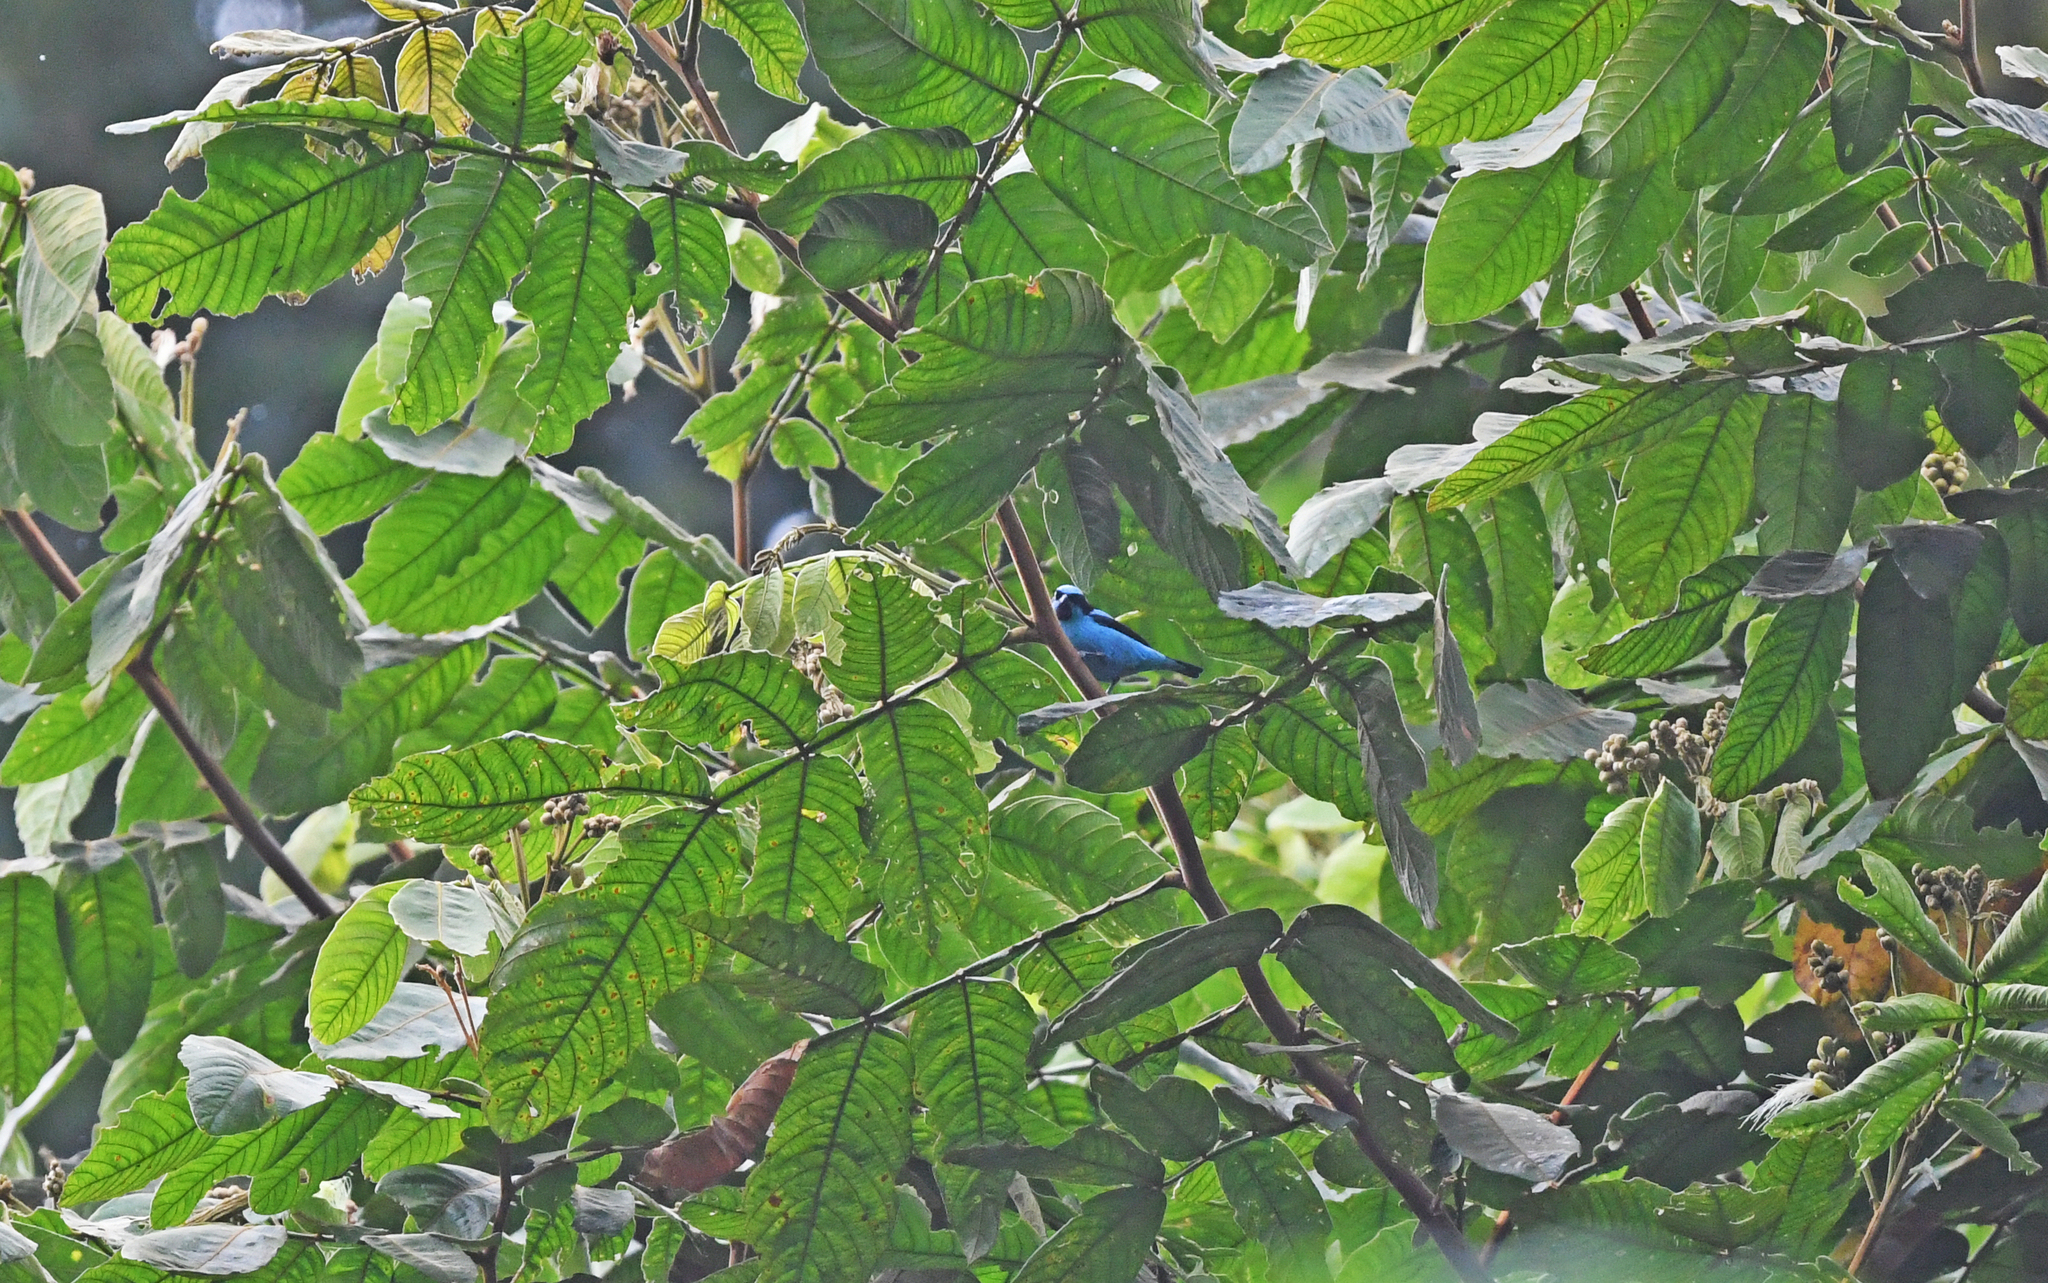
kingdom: Animalia
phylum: Chordata
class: Aves
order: Passeriformes
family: Thraupidae
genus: Dacnis
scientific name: Dacnis hartlaubi
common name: Turquoise dacnis
